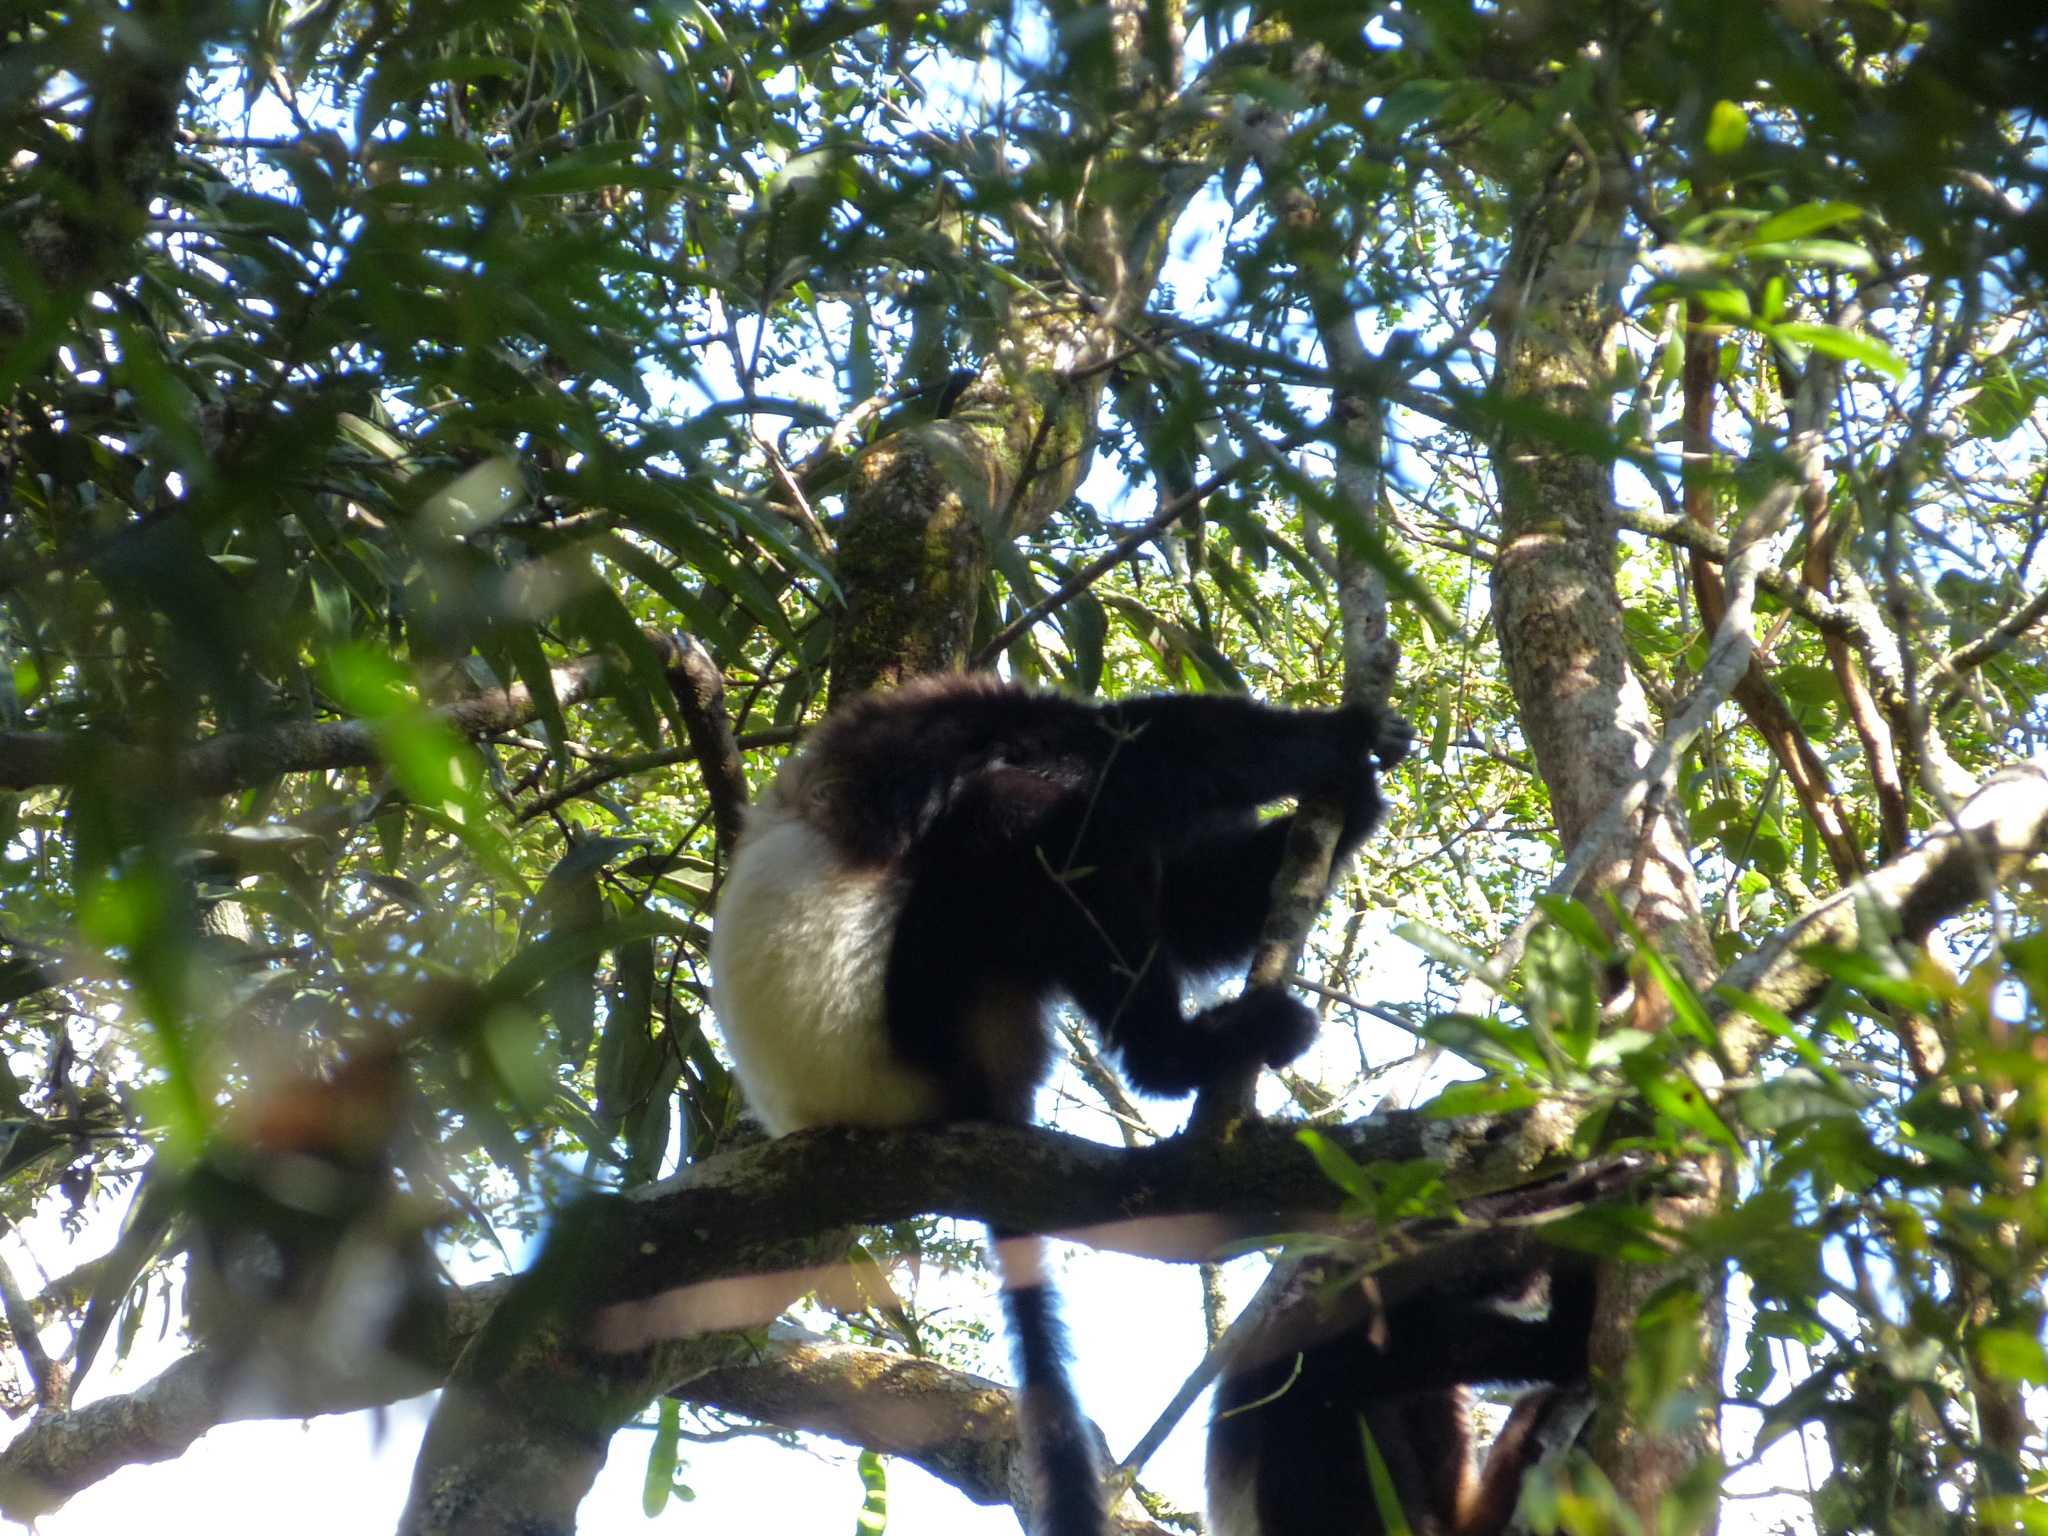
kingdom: Animalia
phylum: Chordata
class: Mammalia
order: Primates
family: Indriidae
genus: Propithecus
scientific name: Propithecus edwardsi
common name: Milne-edwards’s simpona
